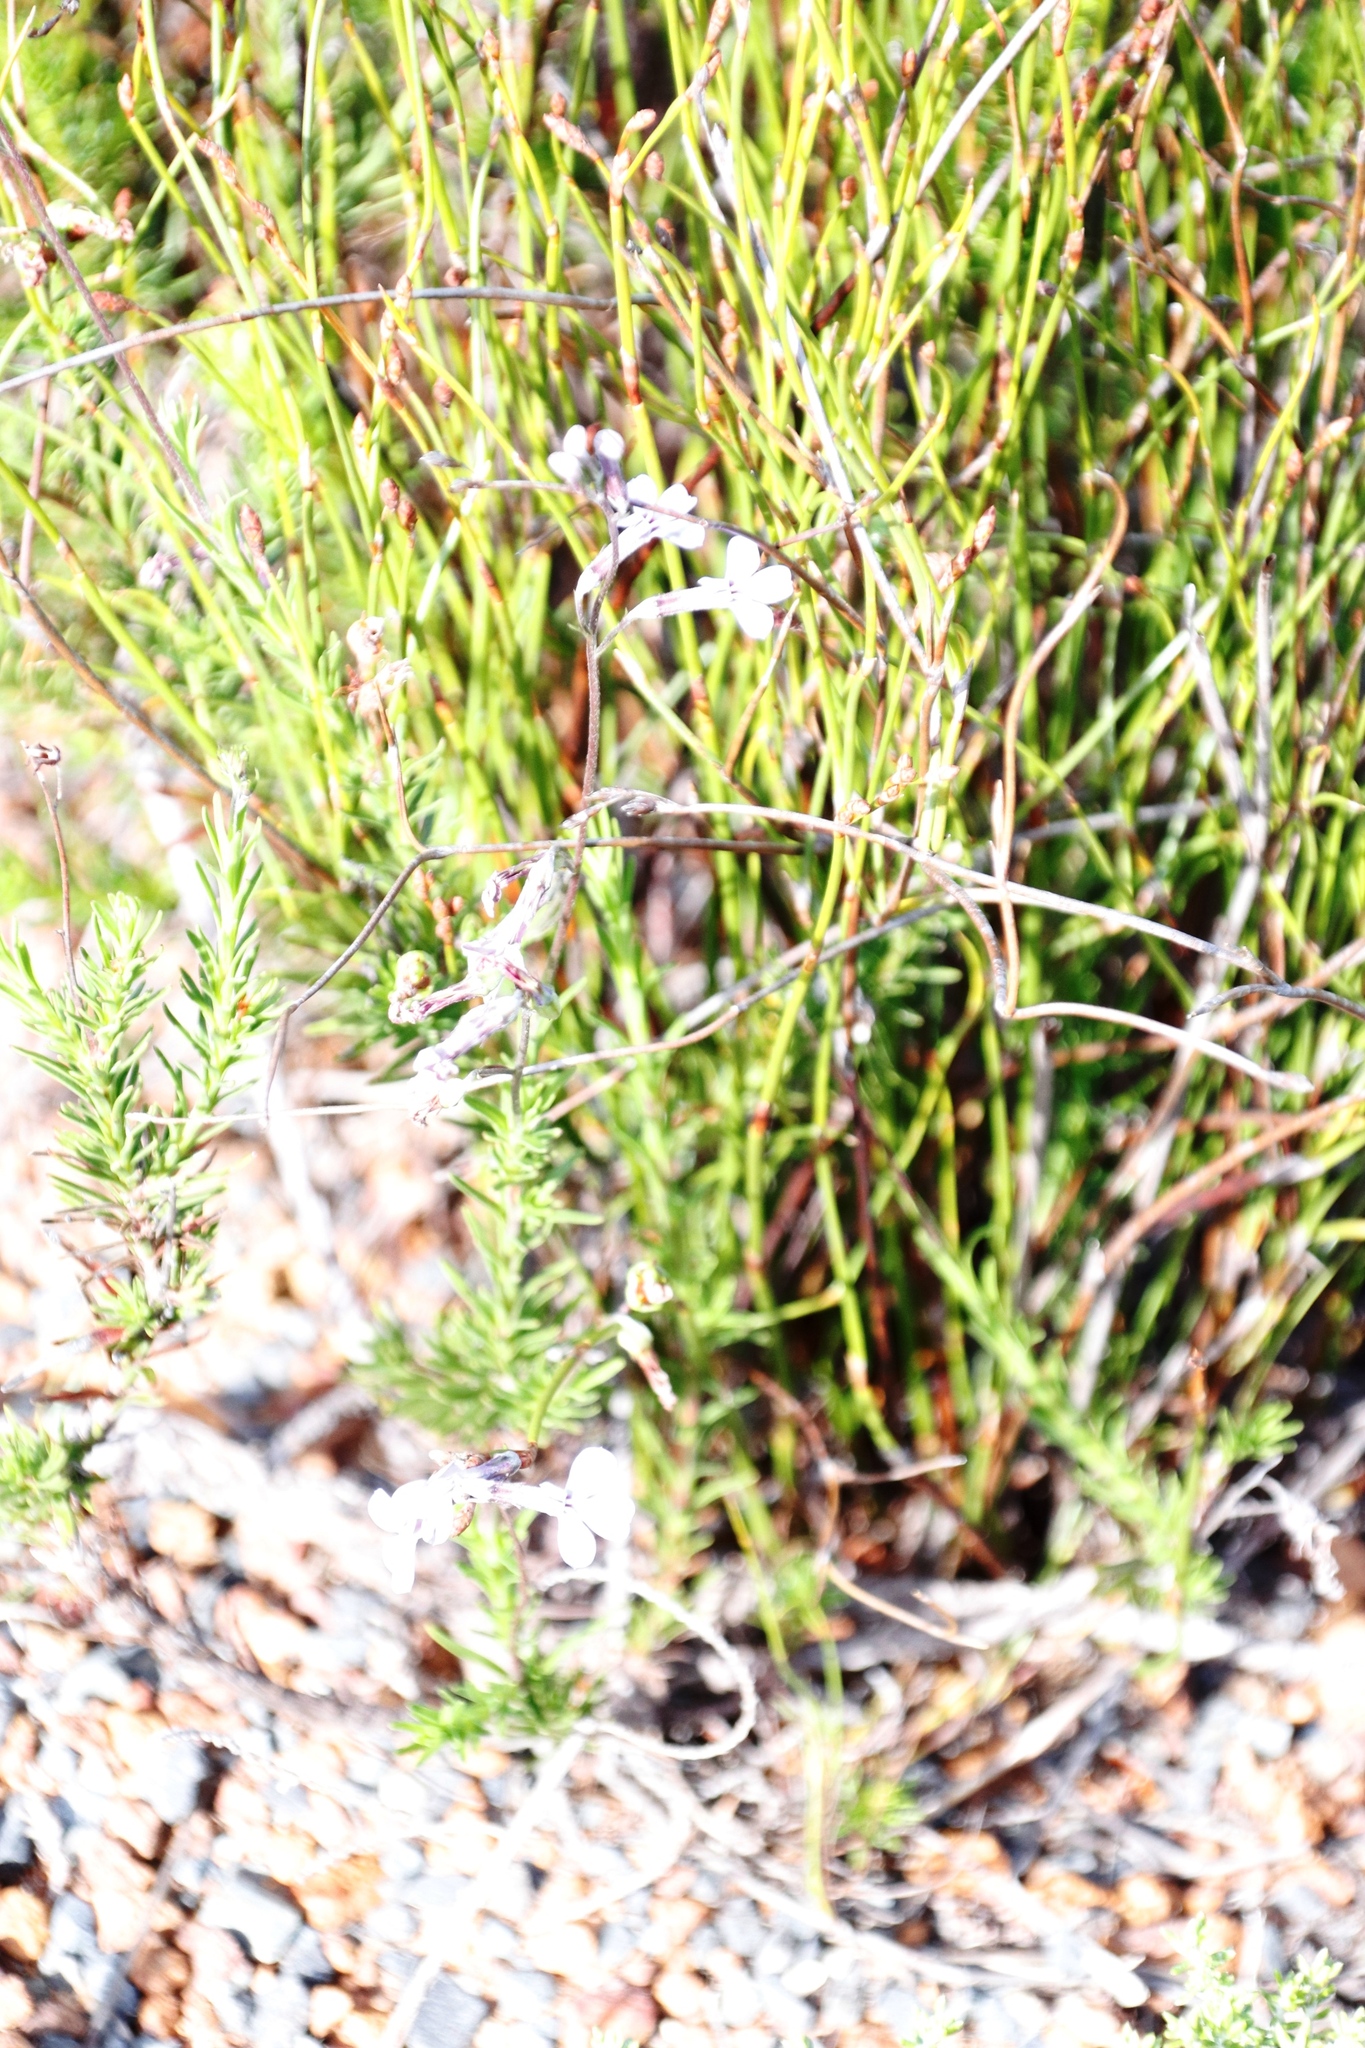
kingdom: Plantae
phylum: Tracheophyta
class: Magnoliopsida
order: Asterales
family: Campanulaceae
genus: Lobelia
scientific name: Lobelia pinifolia
